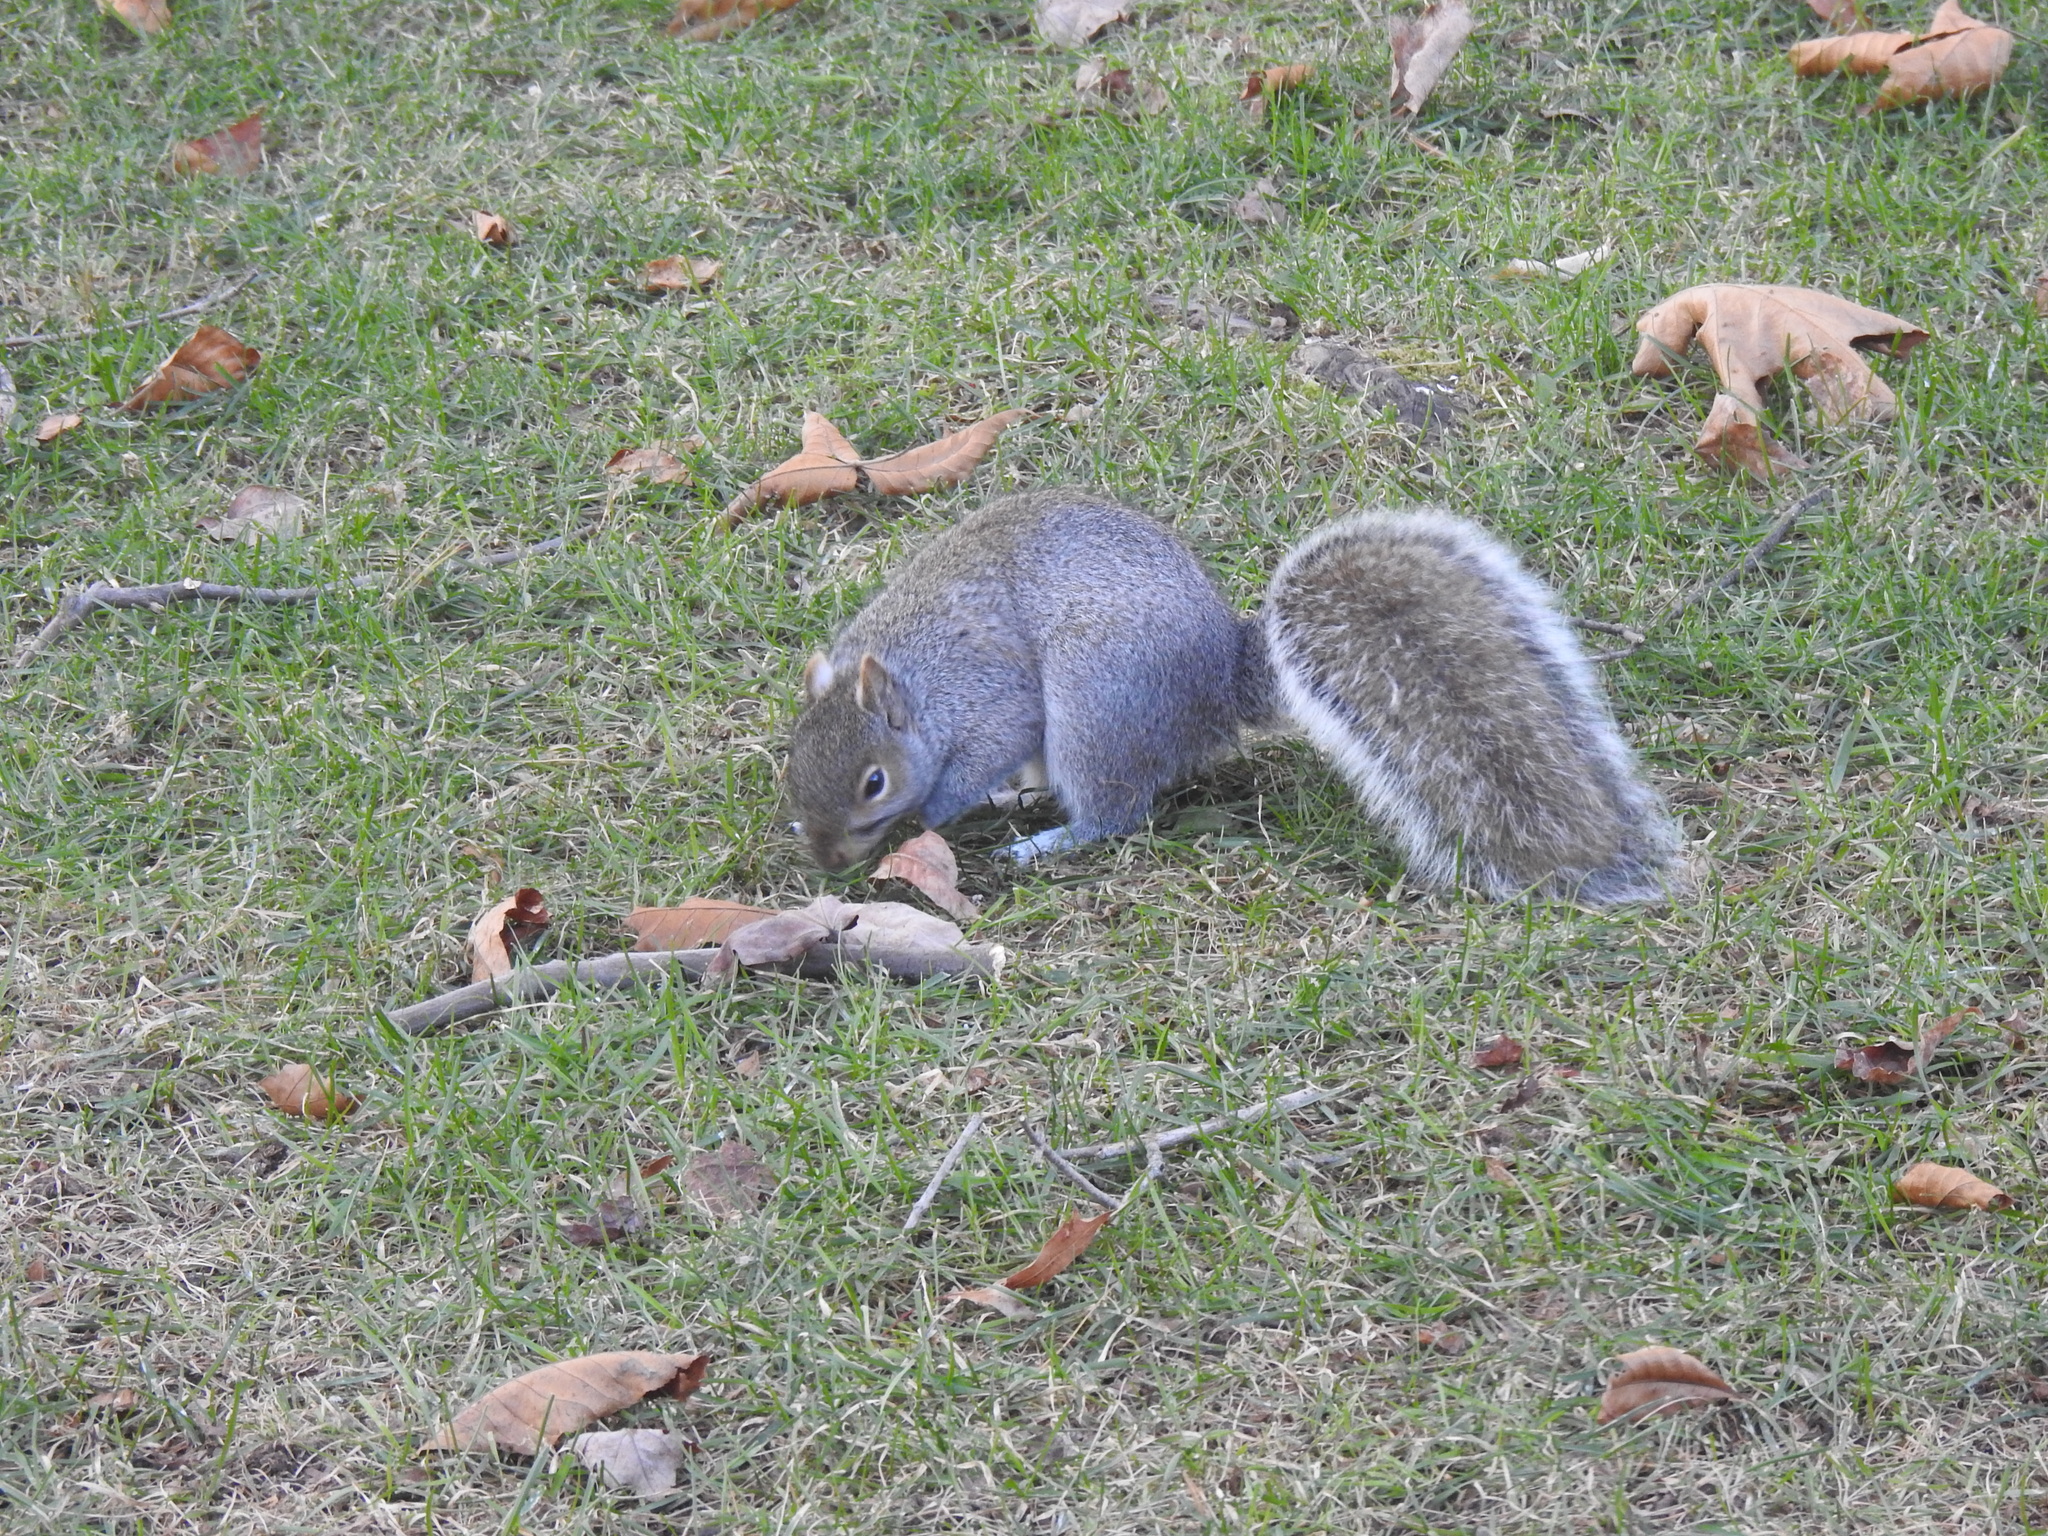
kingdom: Animalia
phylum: Chordata
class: Mammalia
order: Rodentia
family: Sciuridae
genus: Sciurus
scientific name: Sciurus carolinensis
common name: Eastern gray squirrel
